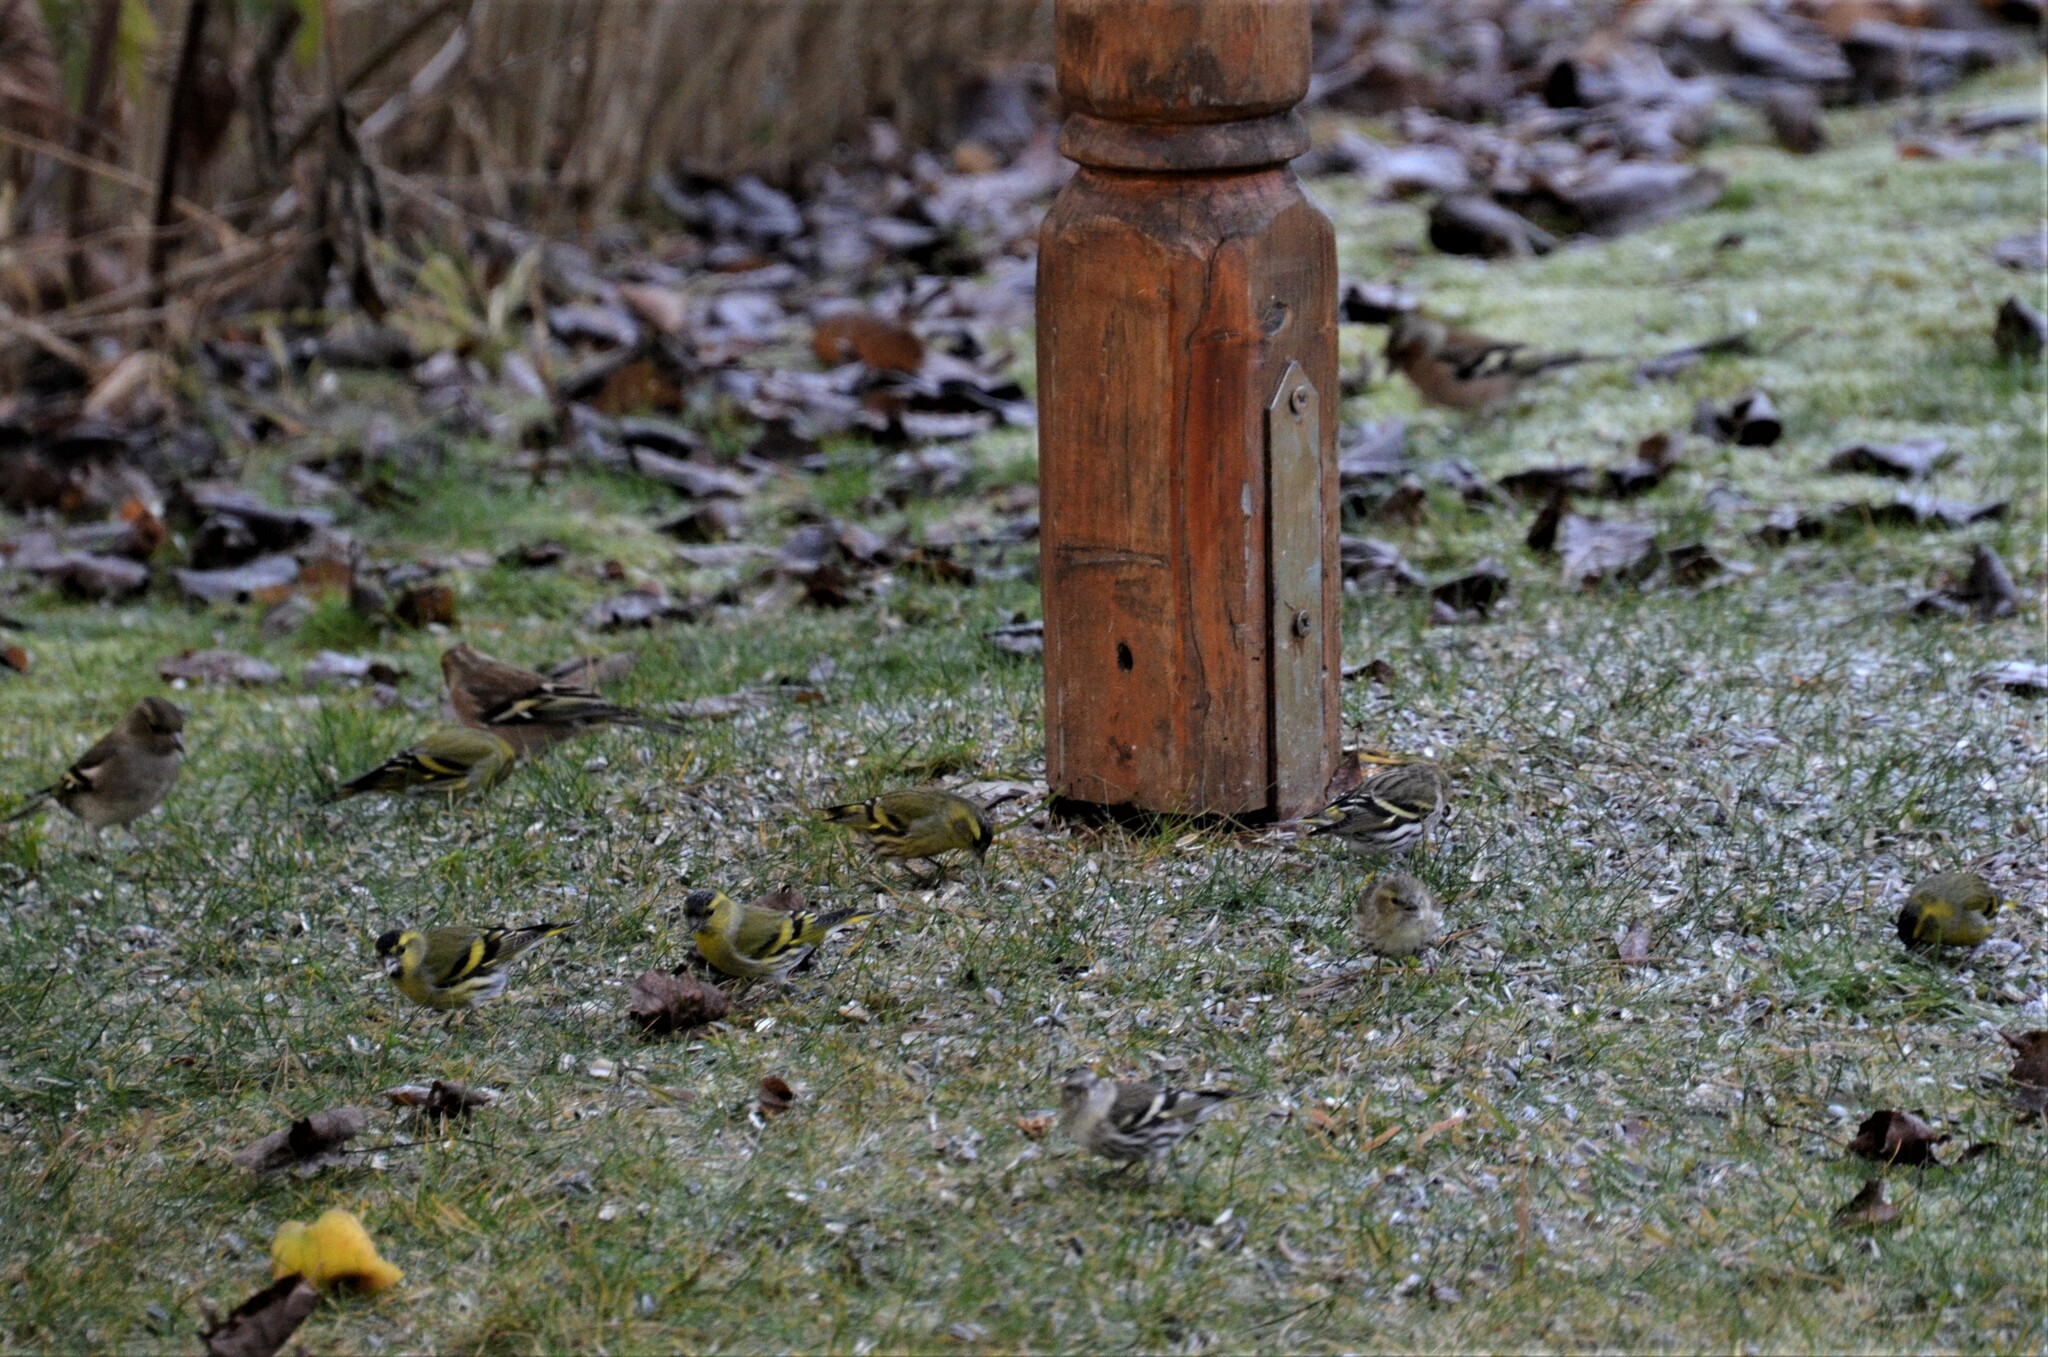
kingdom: Animalia
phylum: Chordata
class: Aves
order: Passeriformes
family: Fringillidae
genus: Spinus
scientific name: Spinus spinus
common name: Eurasian siskin
